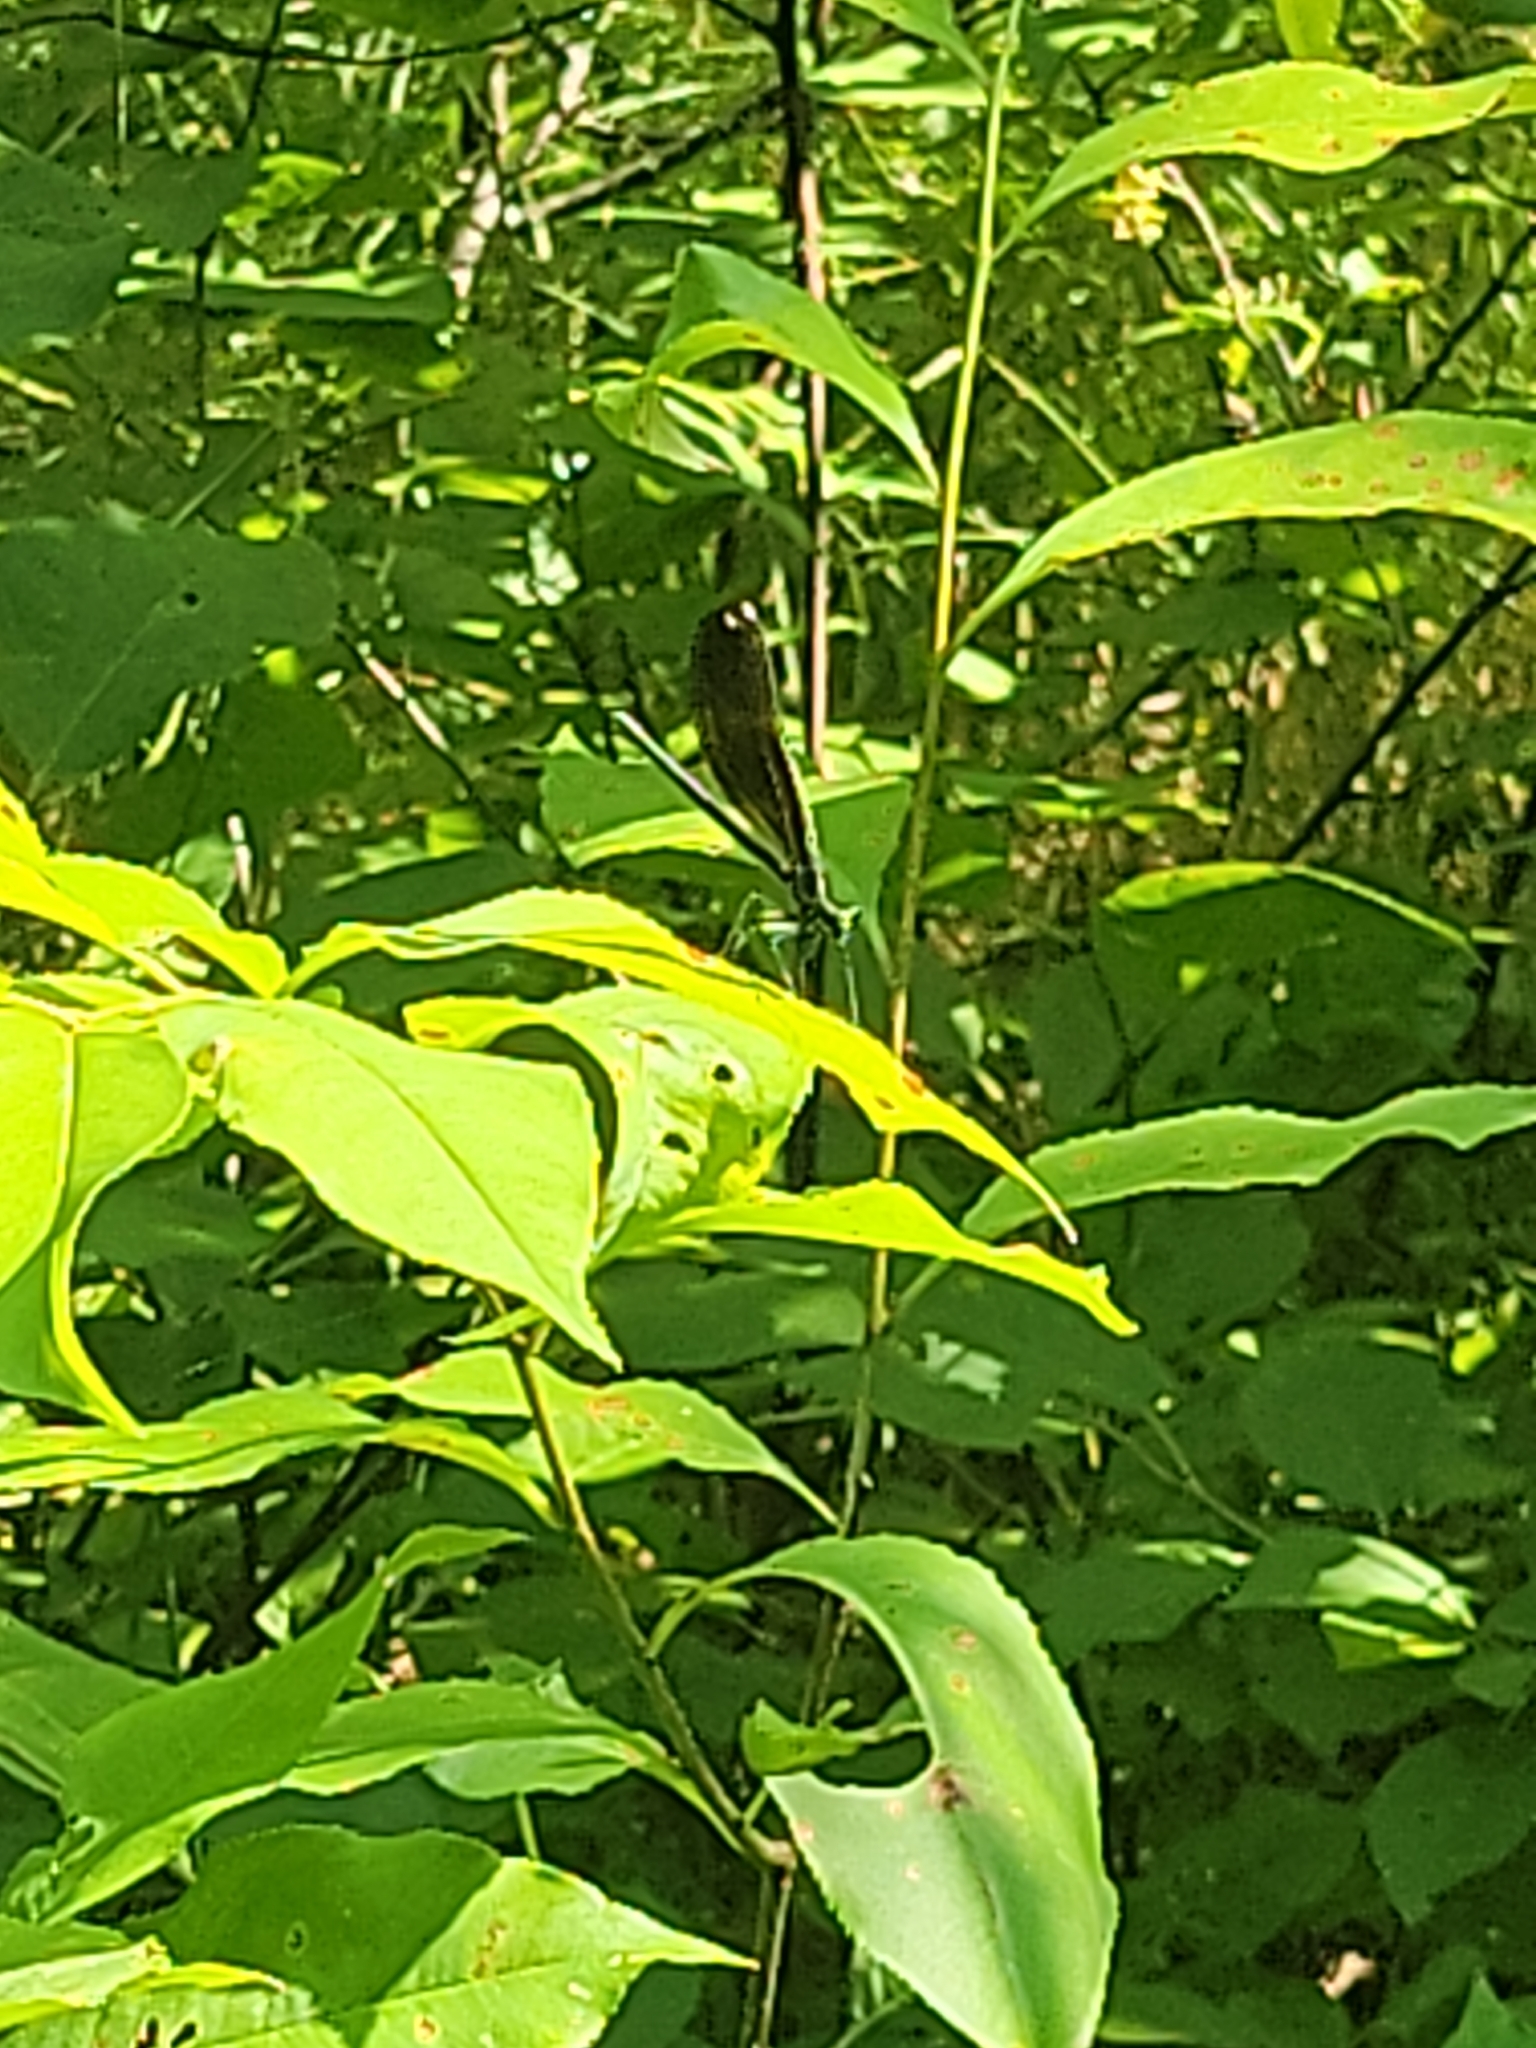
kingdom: Animalia
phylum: Arthropoda
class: Insecta
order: Odonata
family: Calopterygidae
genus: Calopteryx
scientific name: Calopteryx maculata
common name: Ebony jewelwing
